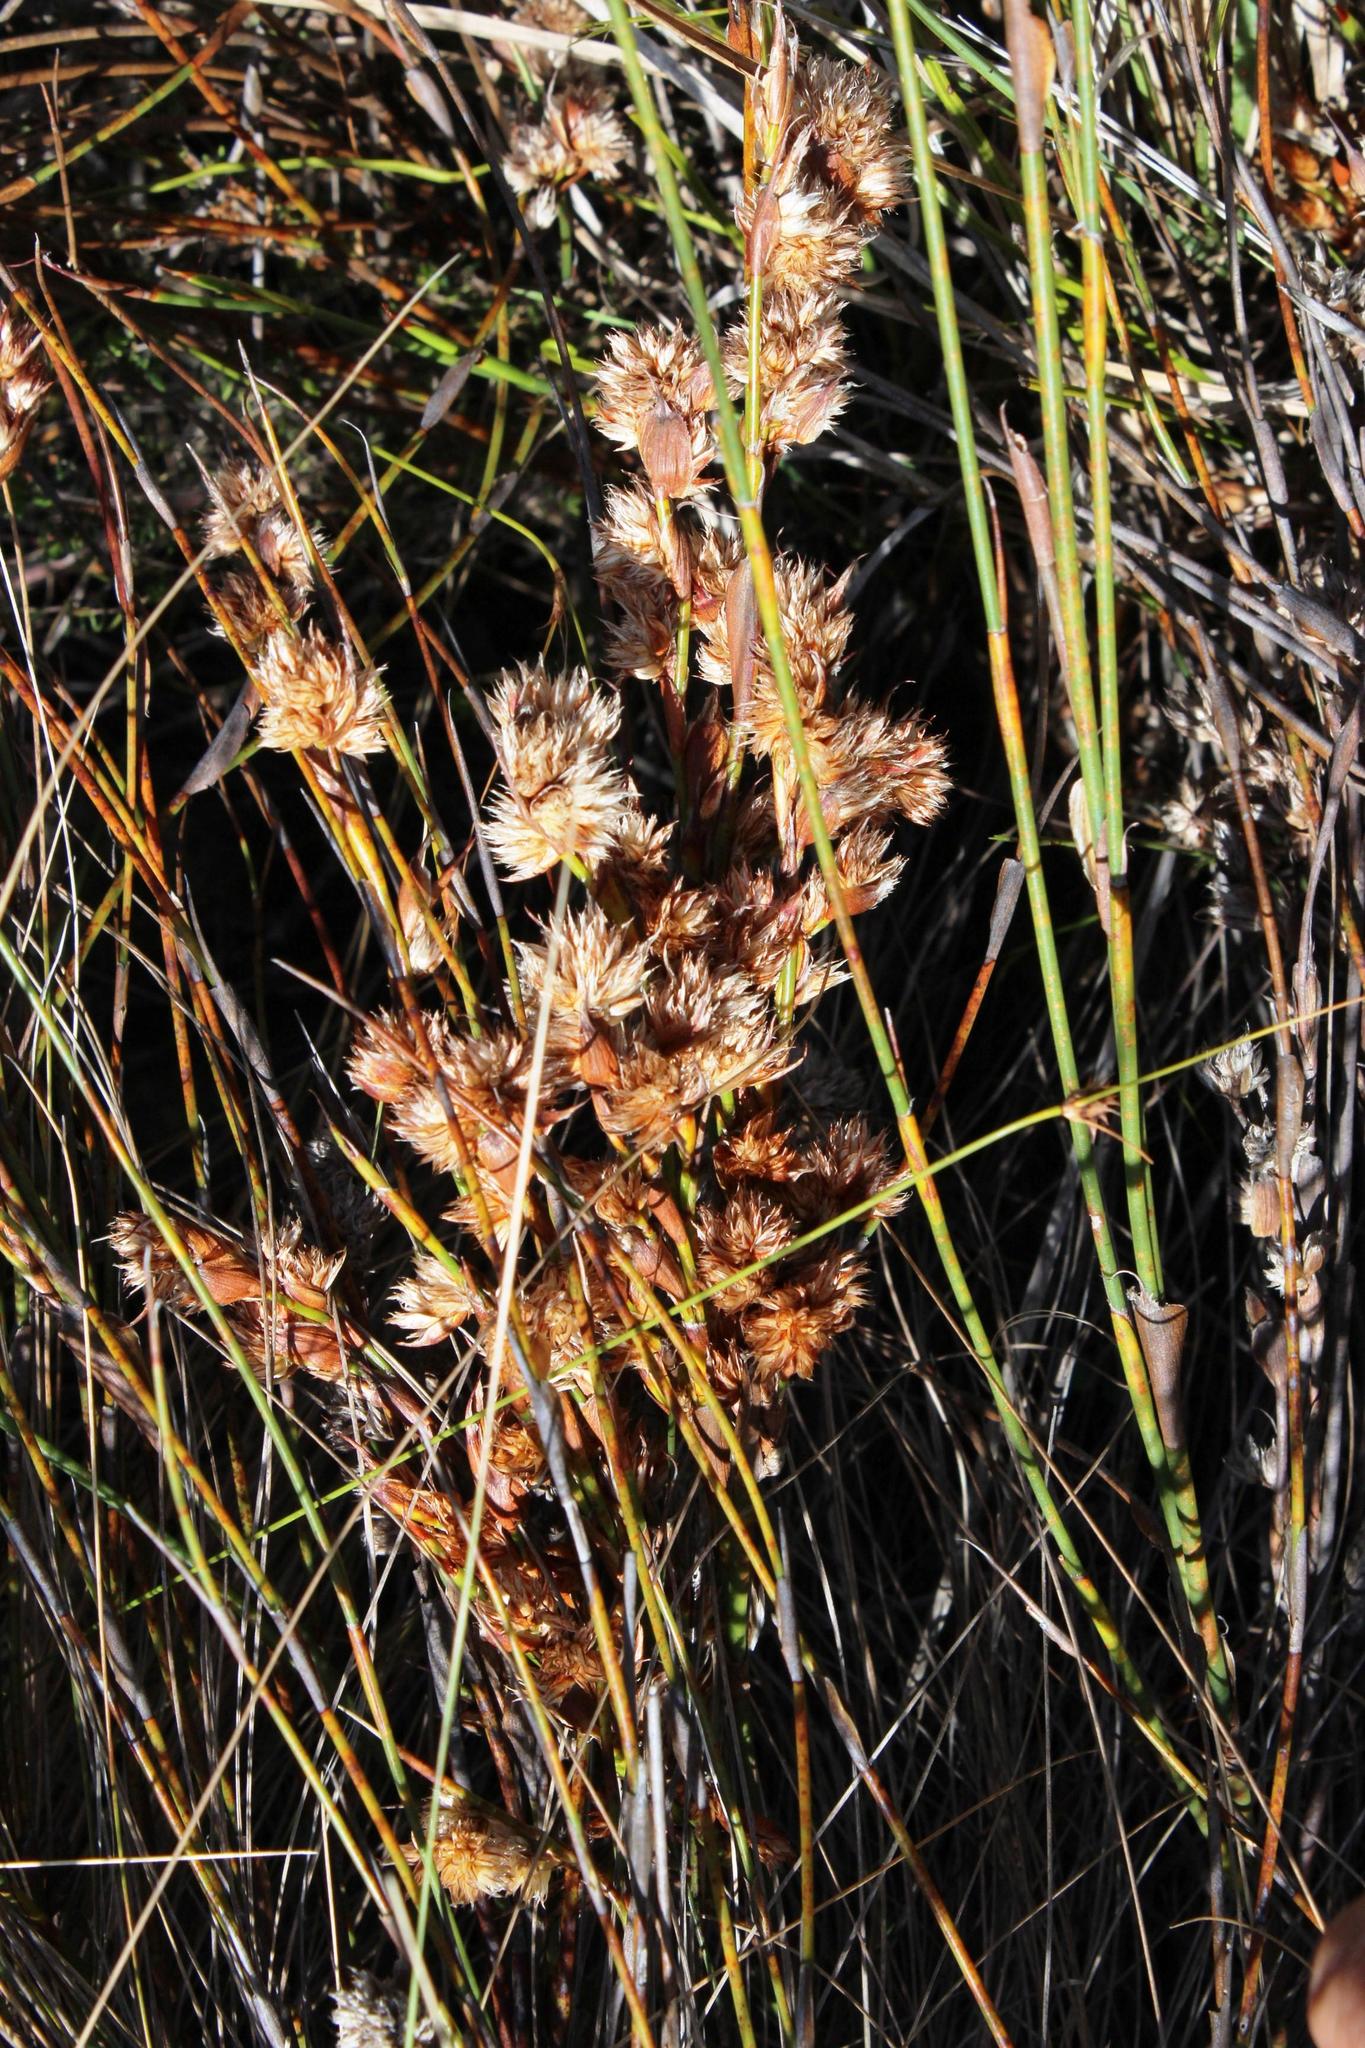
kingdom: Plantae
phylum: Tracheophyta
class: Liliopsida
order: Poales
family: Restionaceae
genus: Willdenowia
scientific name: Willdenowia glomerata
